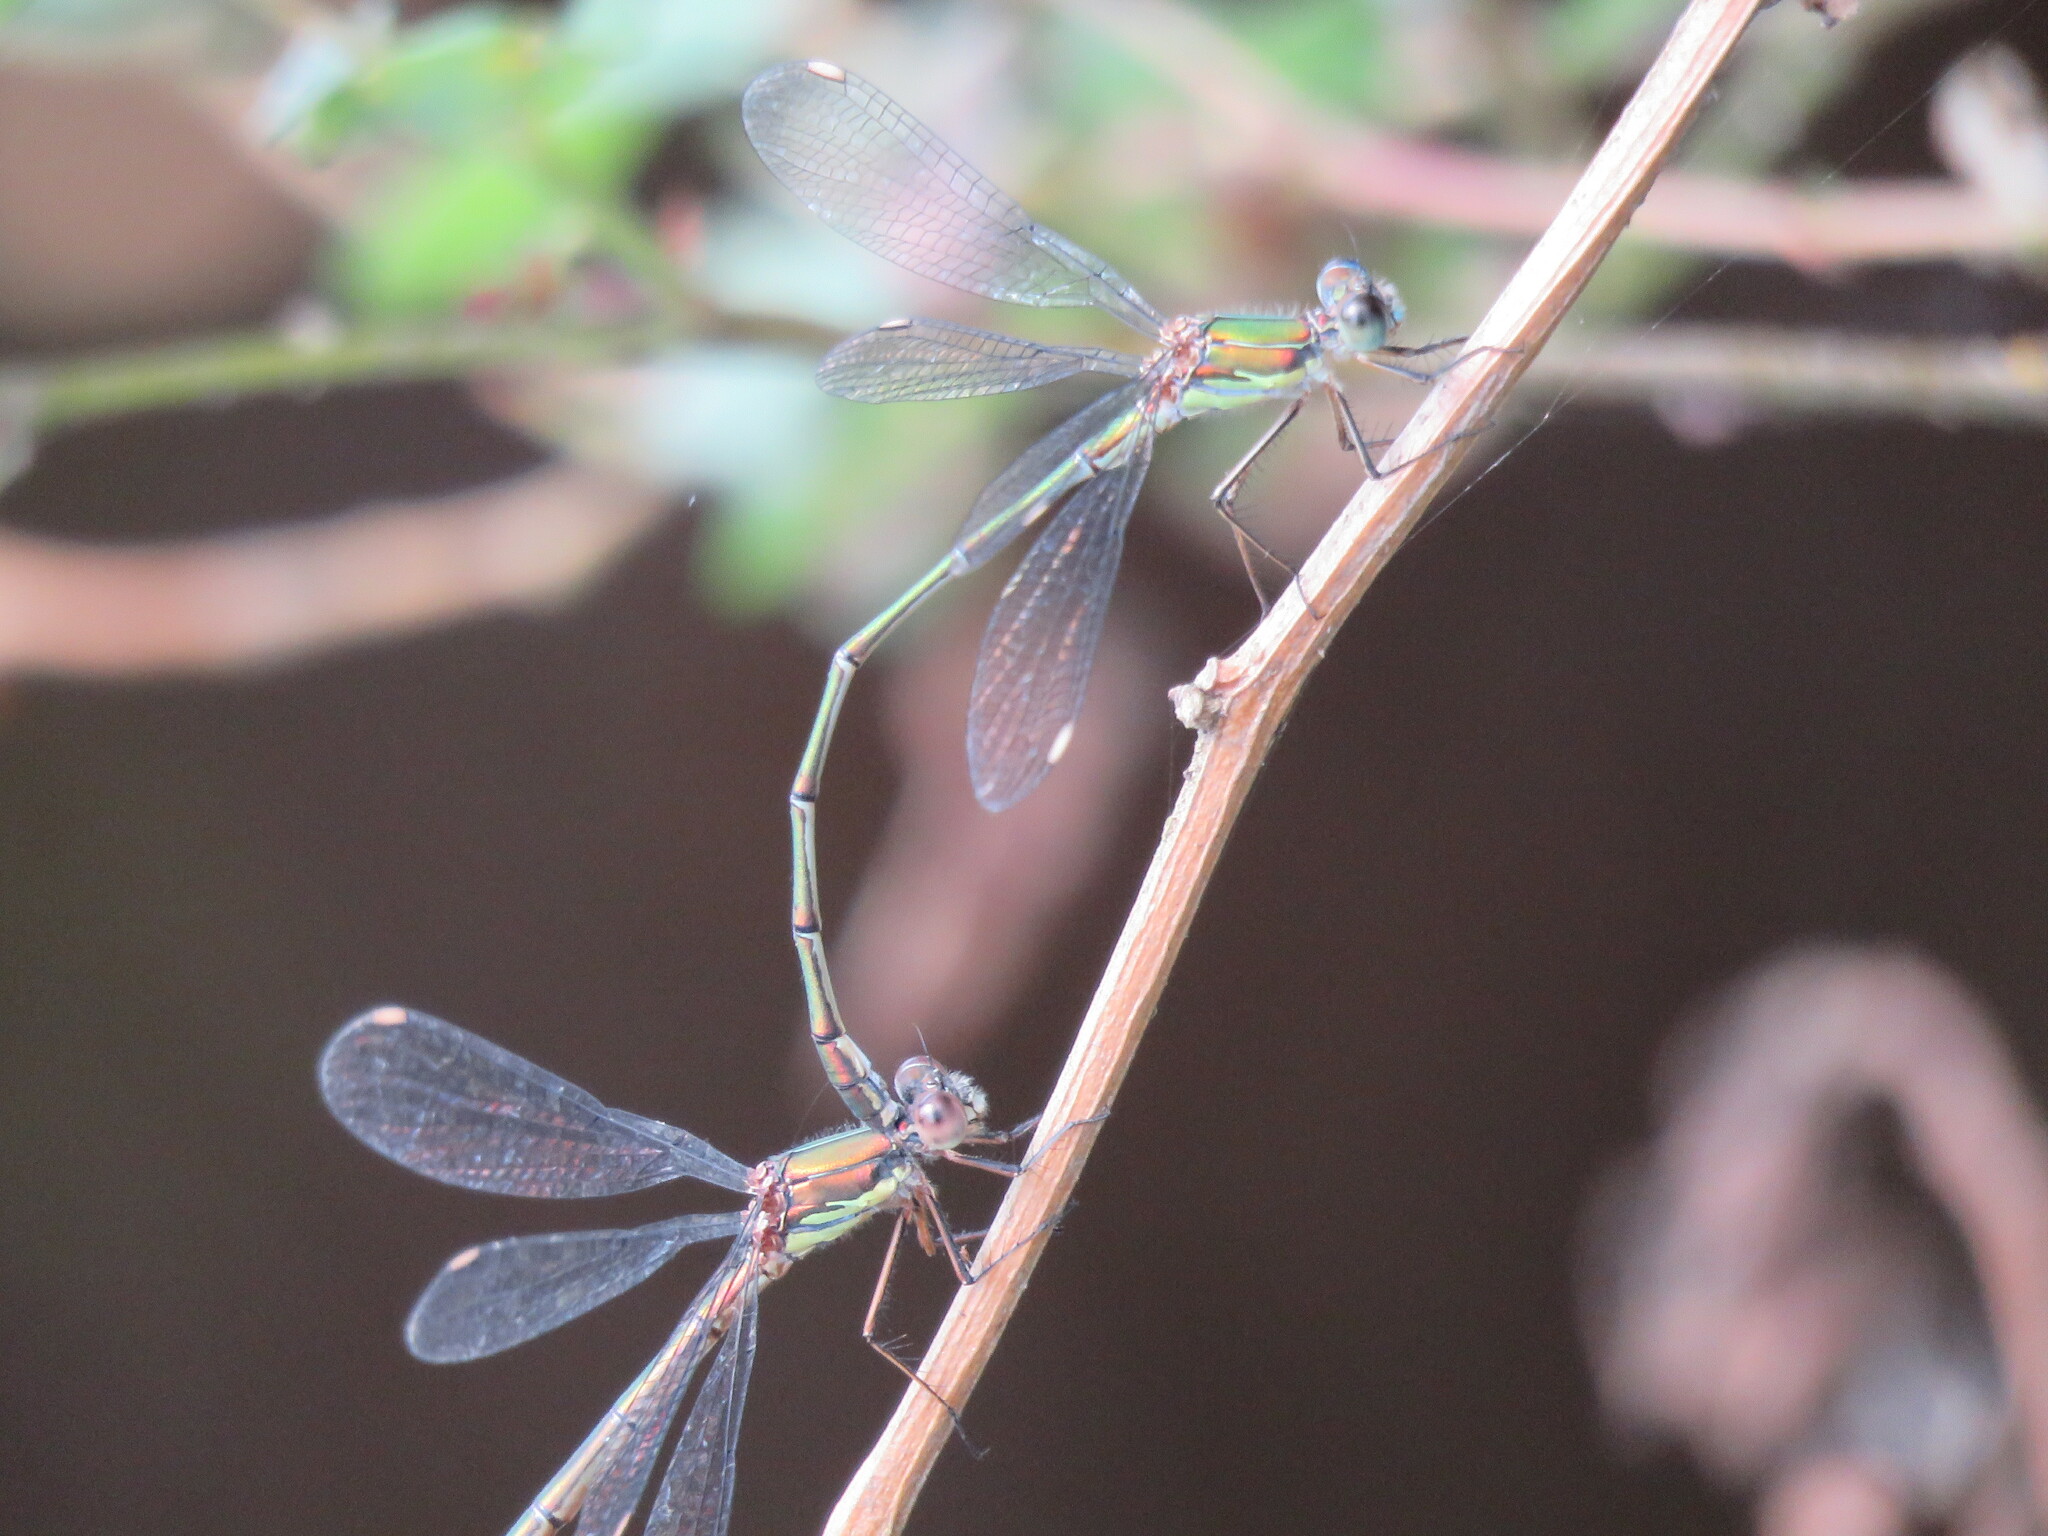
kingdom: Animalia
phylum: Arthropoda
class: Insecta
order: Odonata
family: Lestidae
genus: Chalcolestes
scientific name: Chalcolestes viridis
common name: Green emerald damselfly
